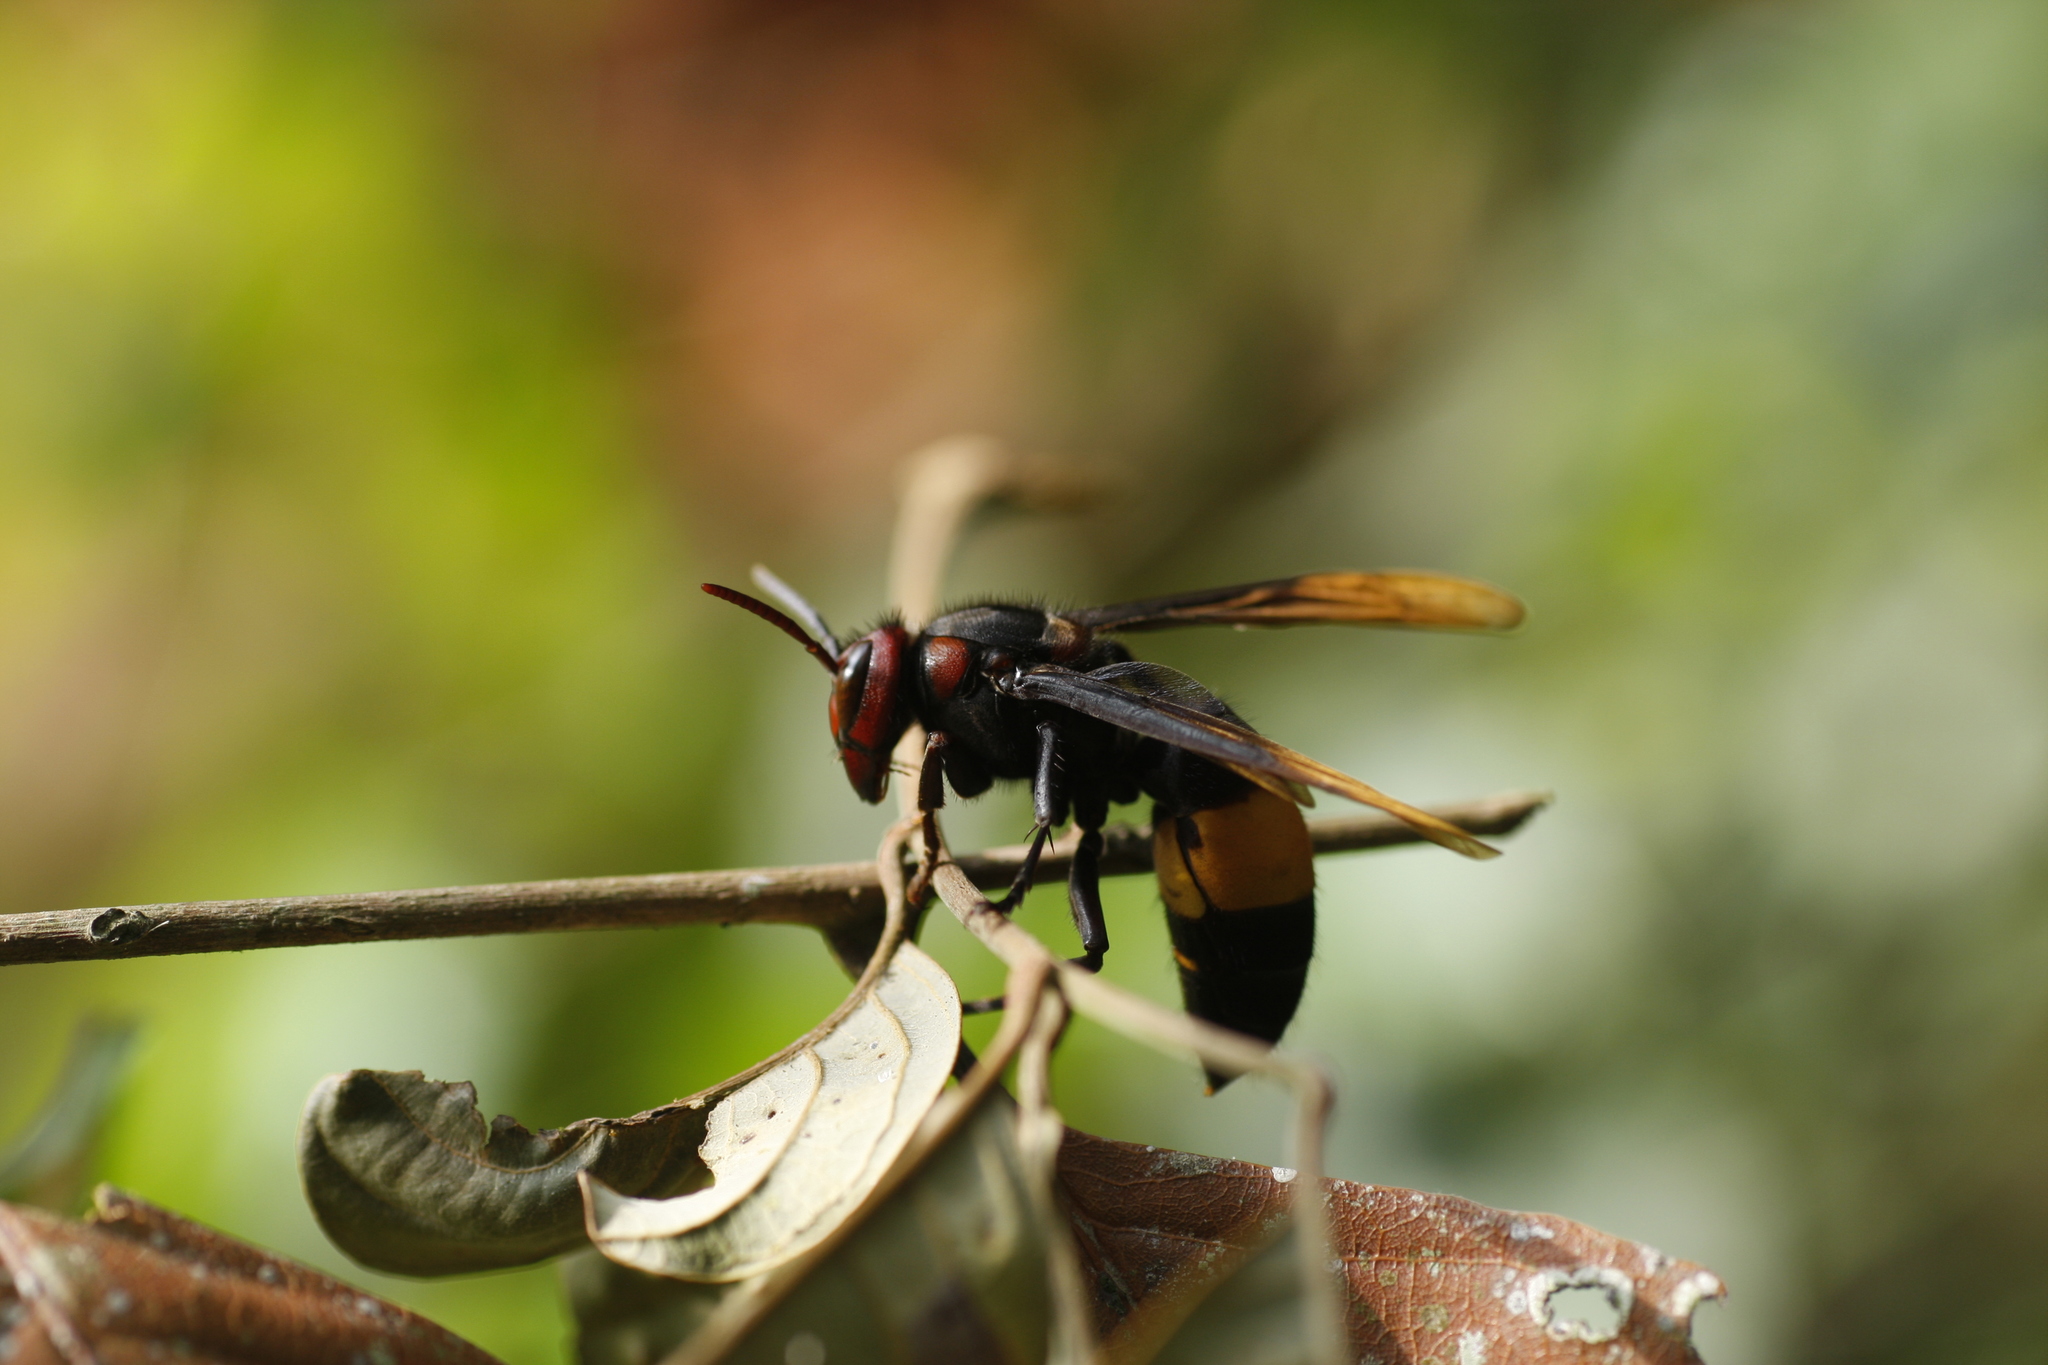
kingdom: Animalia
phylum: Arthropoda
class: Insecta
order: Hymenoptera
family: Vespidae
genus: Vespa
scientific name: Vespa tropica
